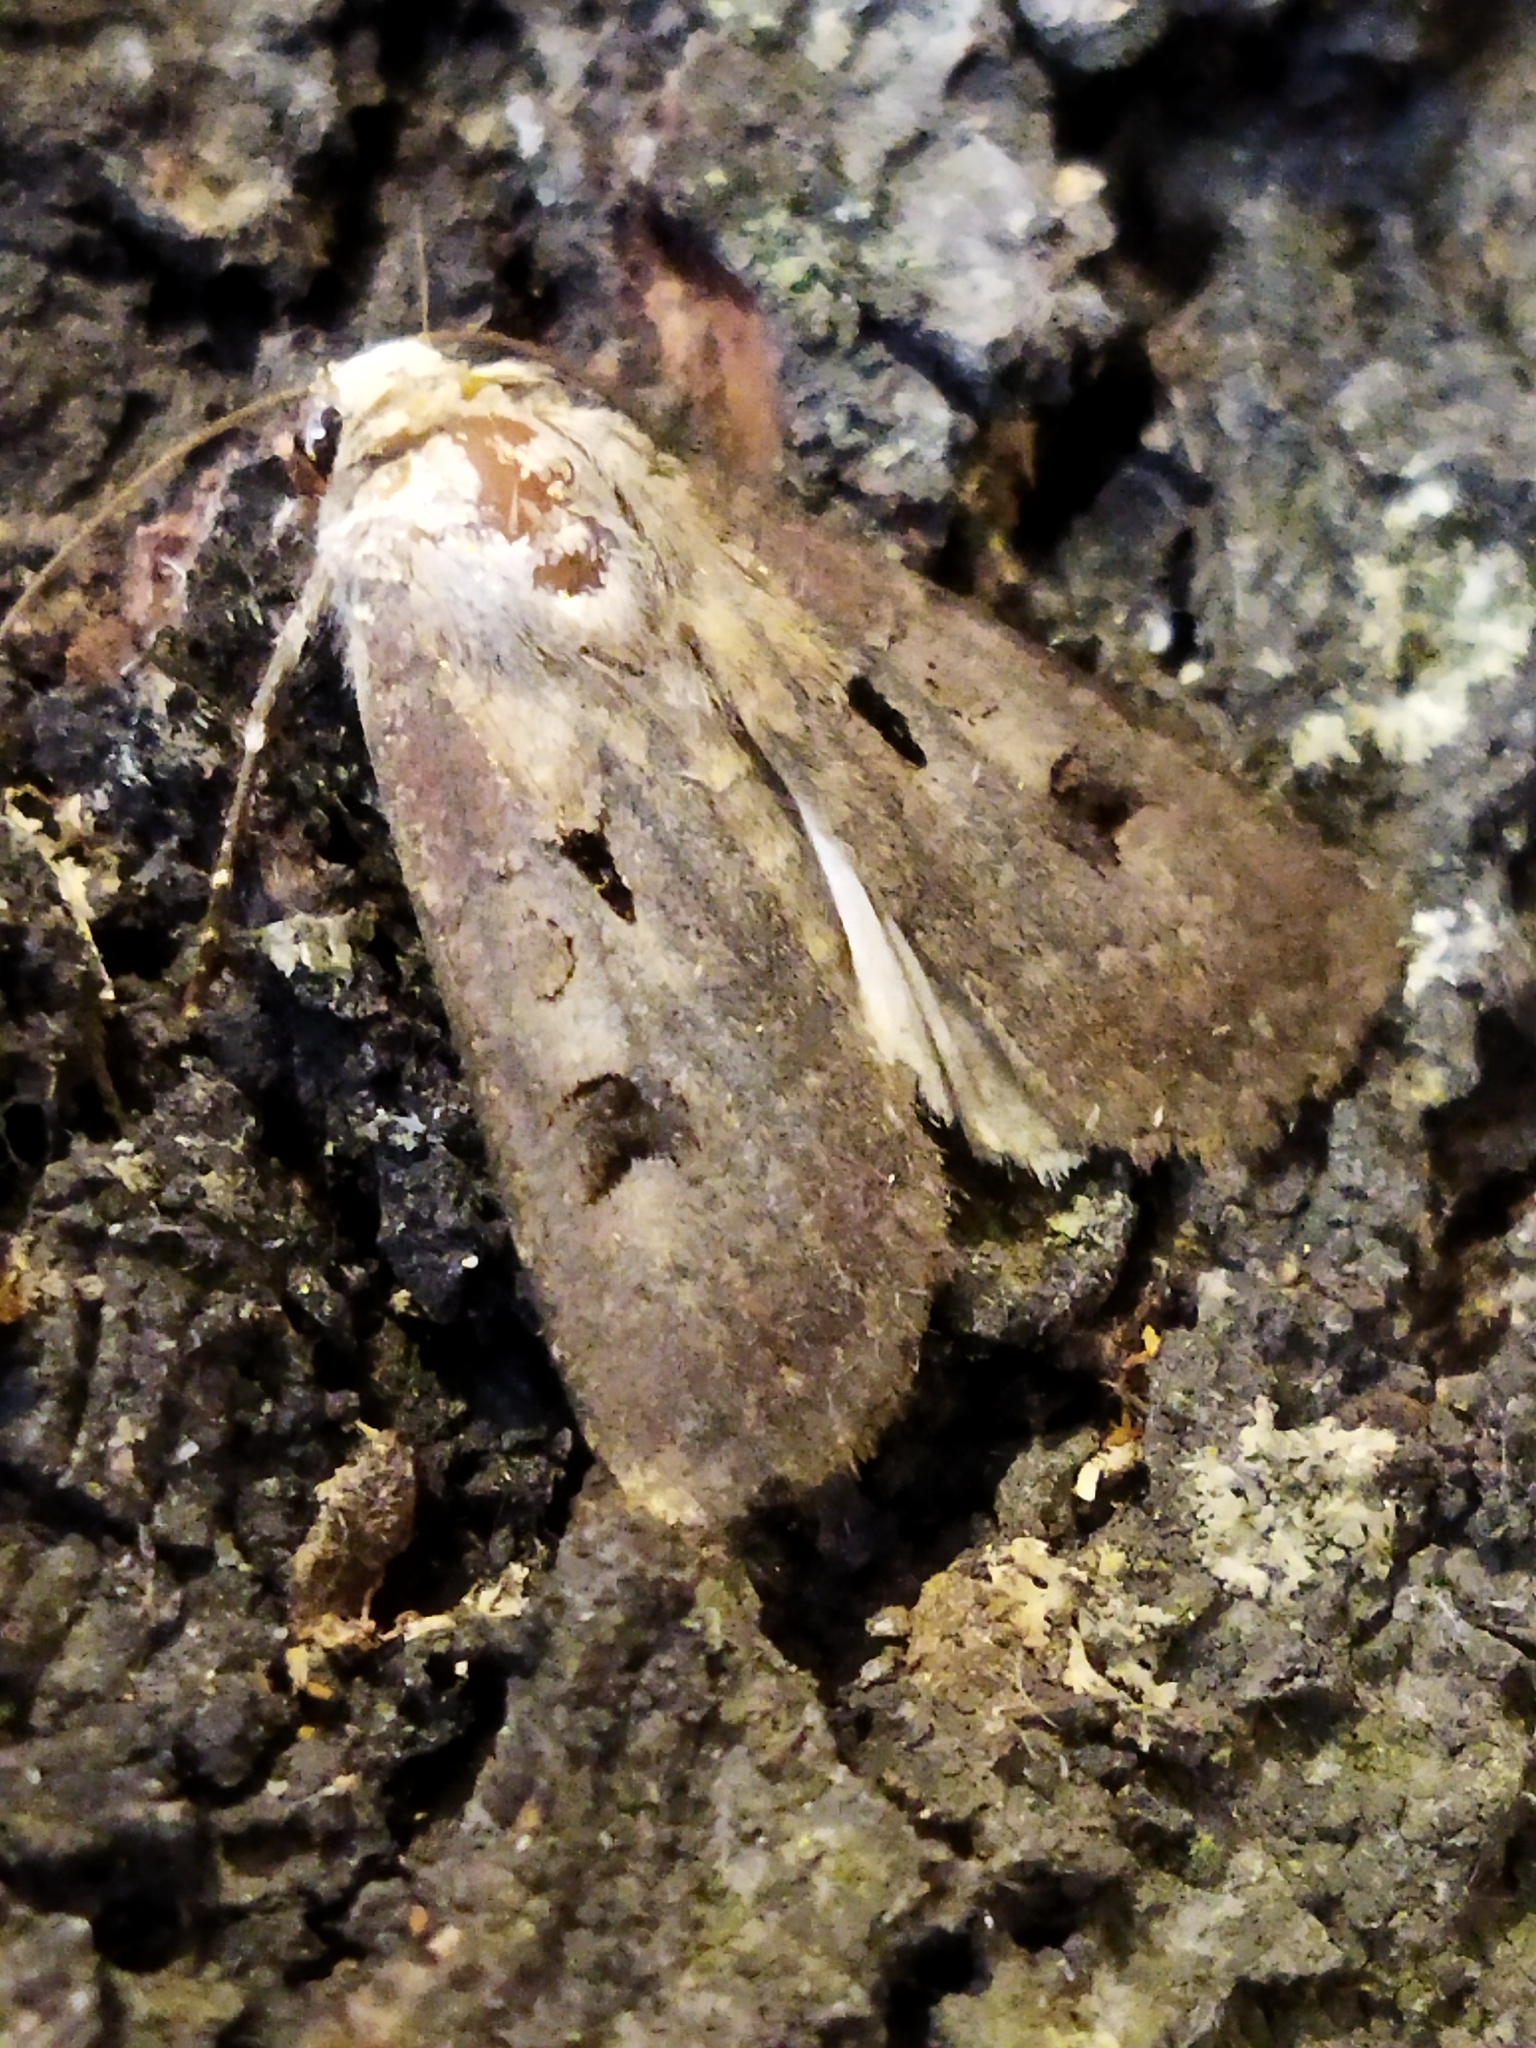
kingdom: Animalia
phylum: Arthropoda
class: Insecta
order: Lepidoptera
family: Noctuidae
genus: Agrotis
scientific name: Agrotis exclamationis
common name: Heart and dart
